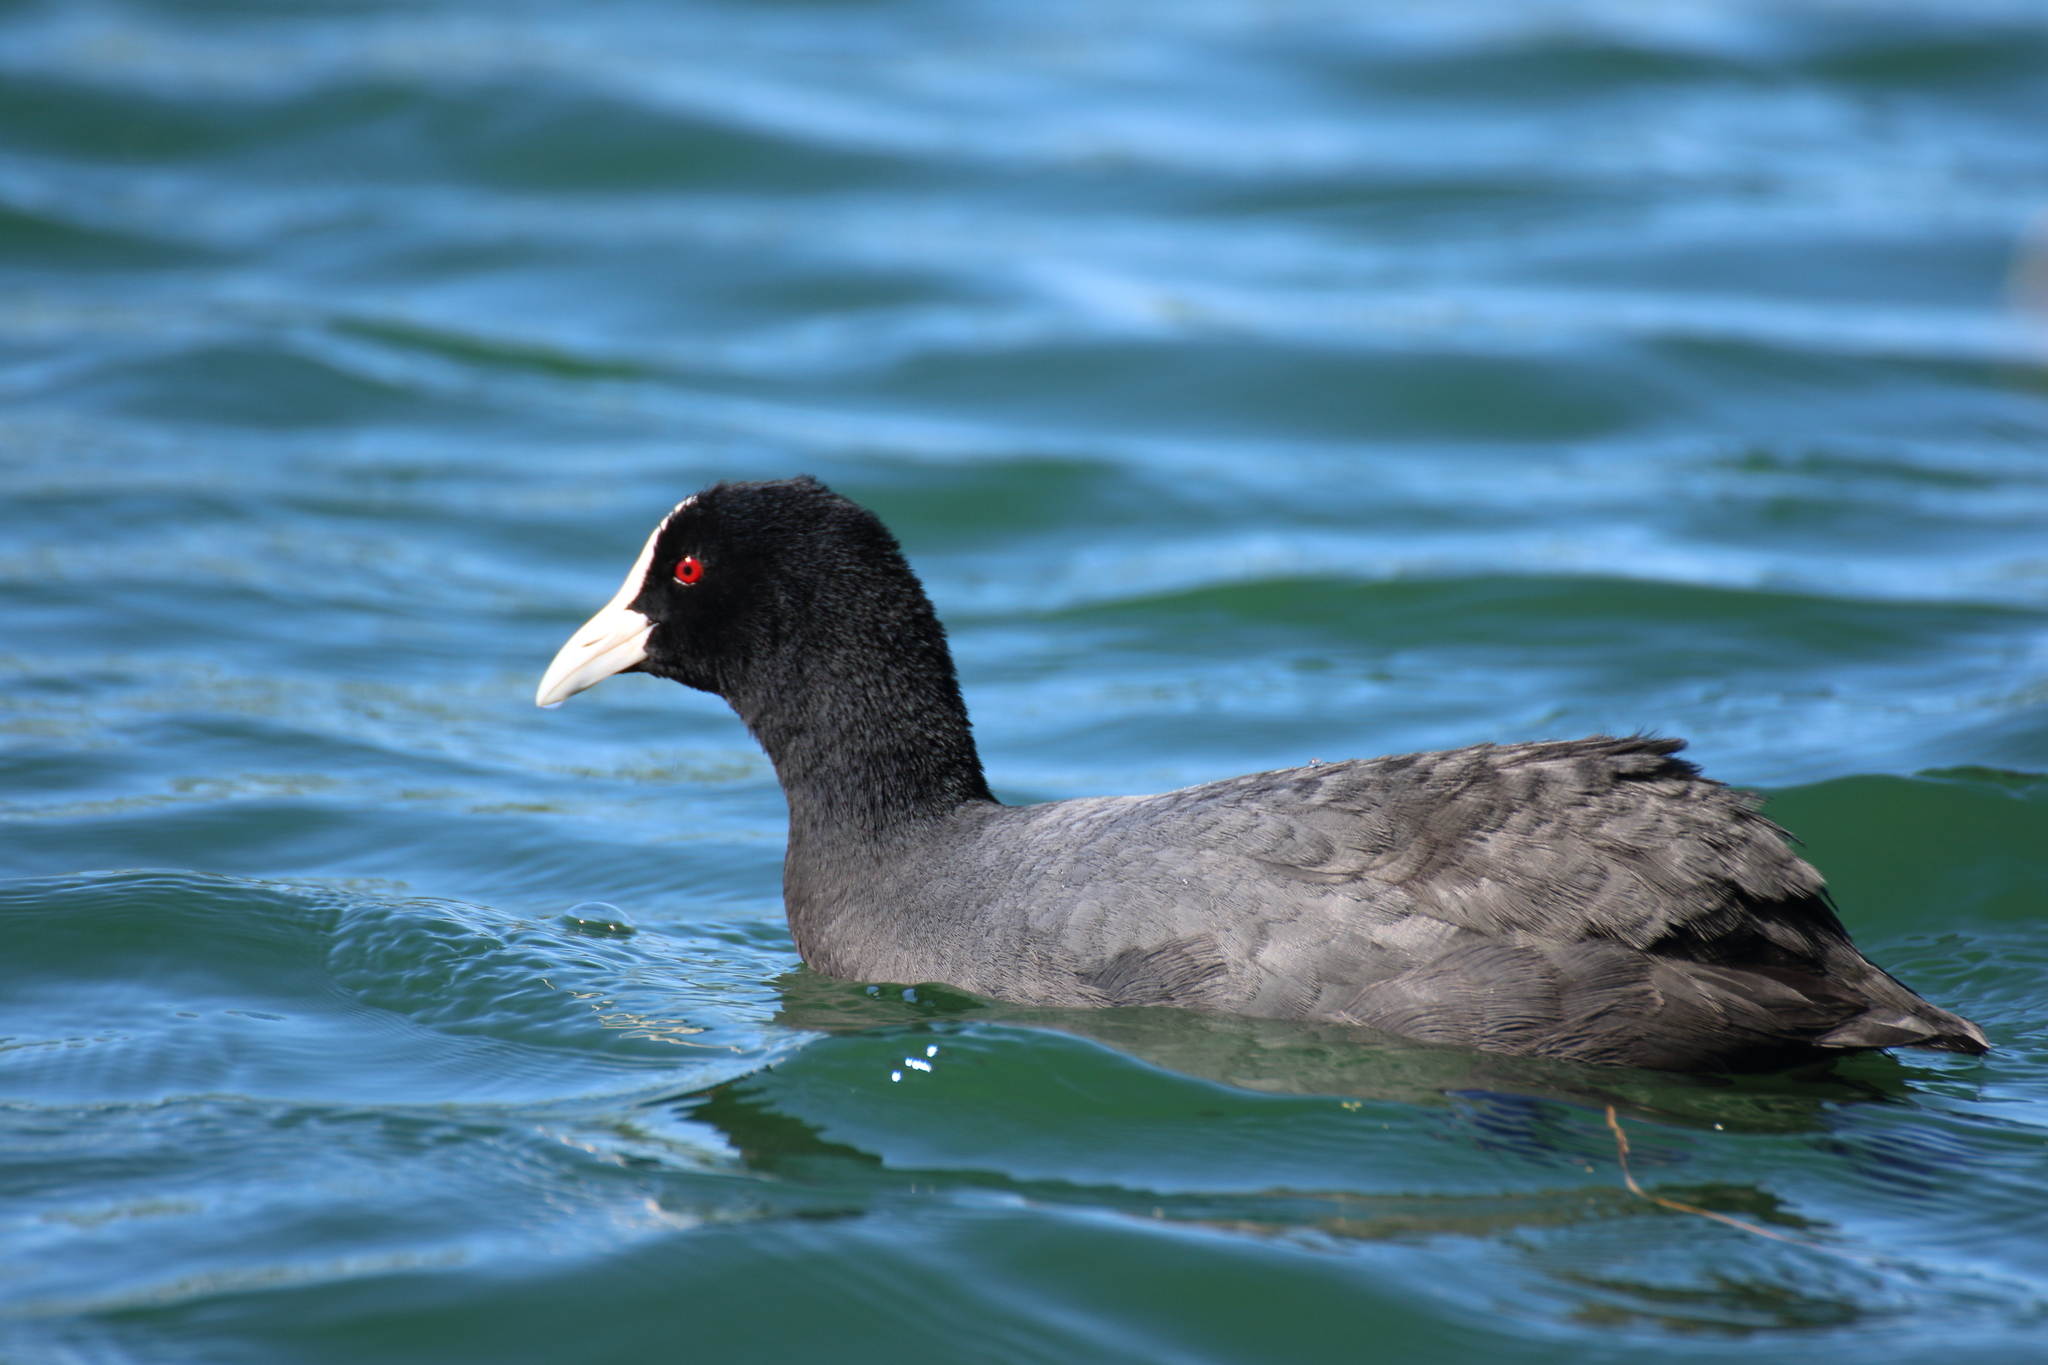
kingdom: Animalia
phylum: Chordata
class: Aves
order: Gruiformes
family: Rallidae
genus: Fulica
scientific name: Fulica atra
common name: Eurasian coot
